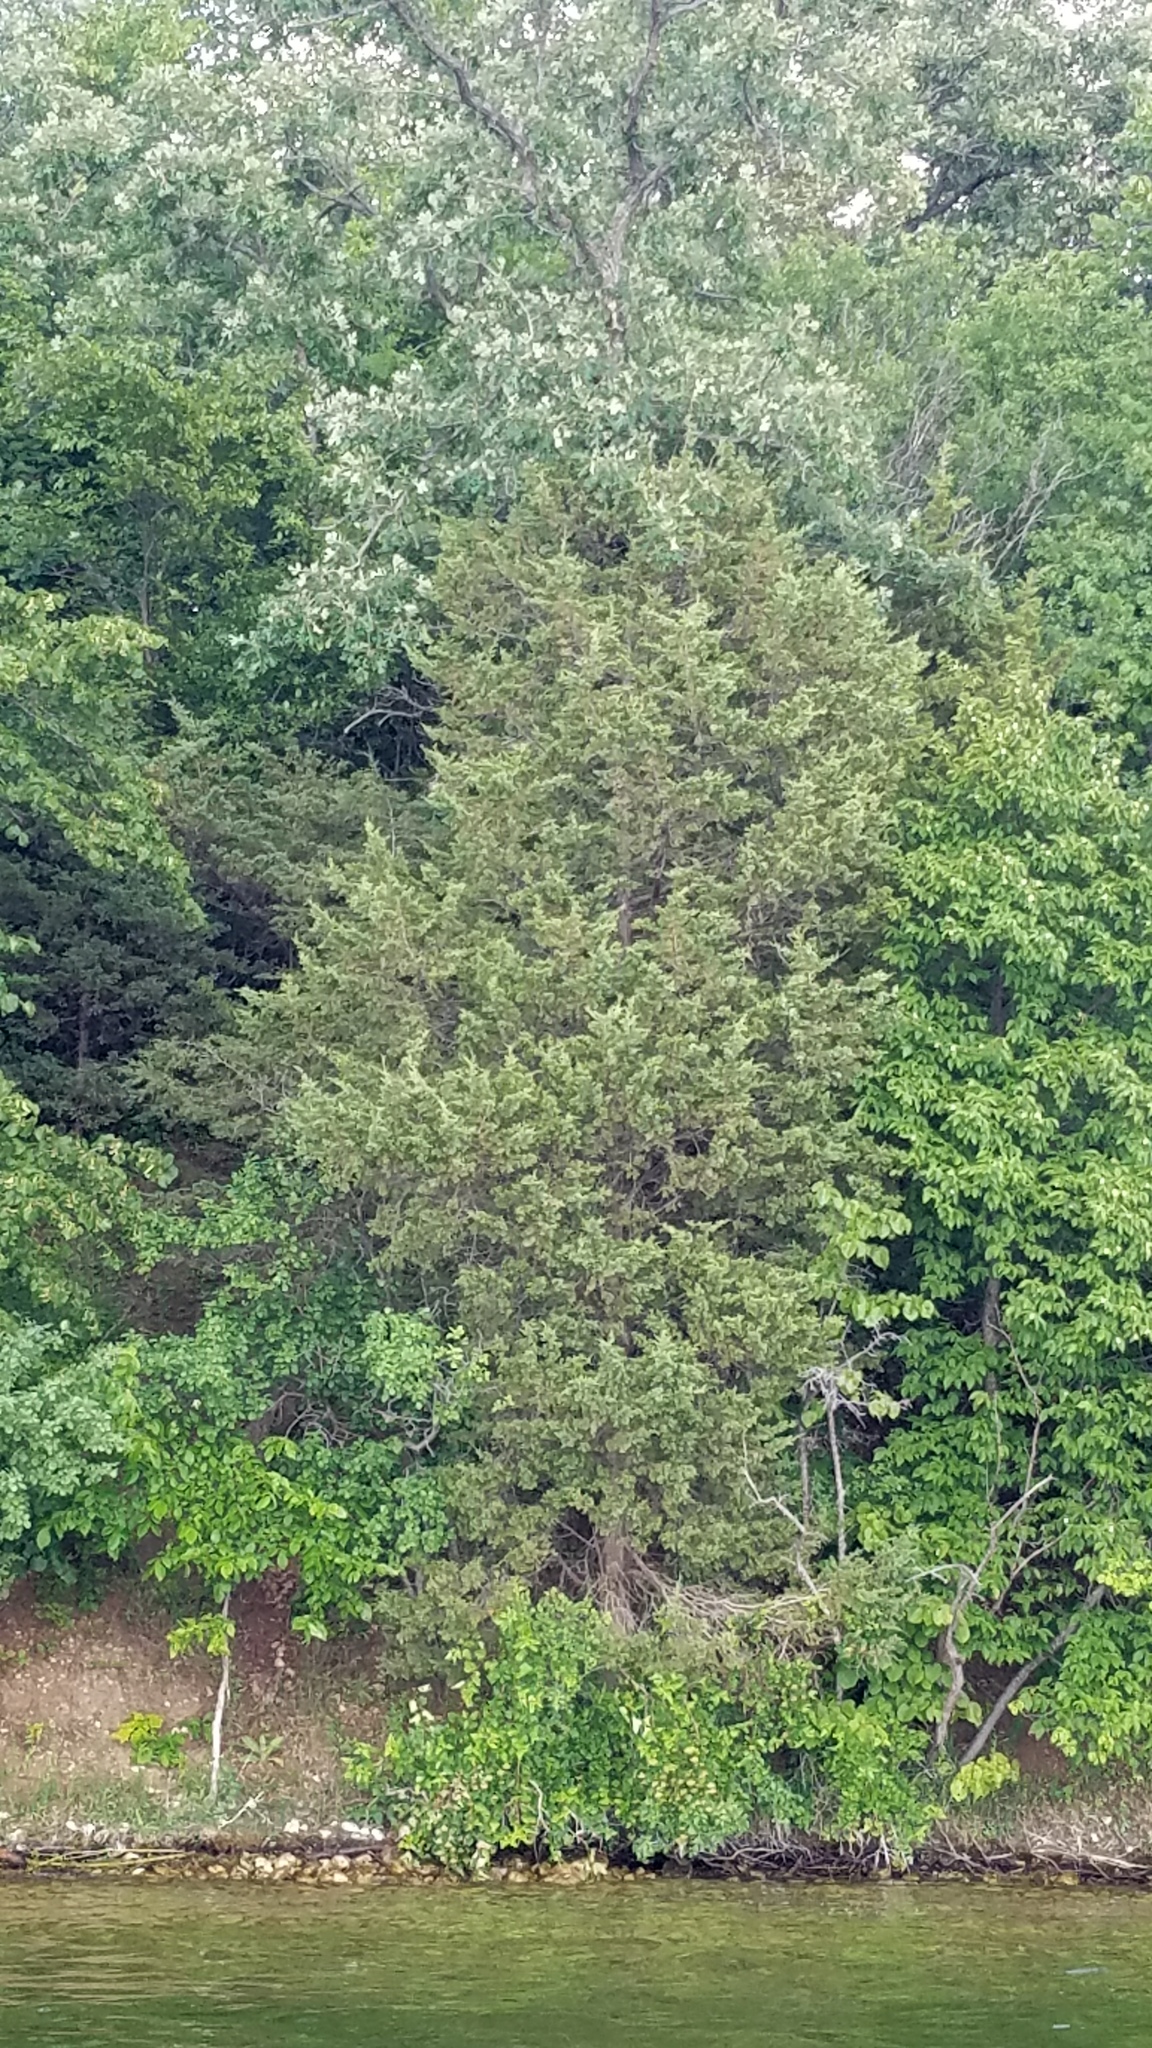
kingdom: Plantae
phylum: Tracheophyta
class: Pinopsida
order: Pinales
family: Cupressaceae
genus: Juniperus
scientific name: Juniperus virginiana
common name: Red juniper
